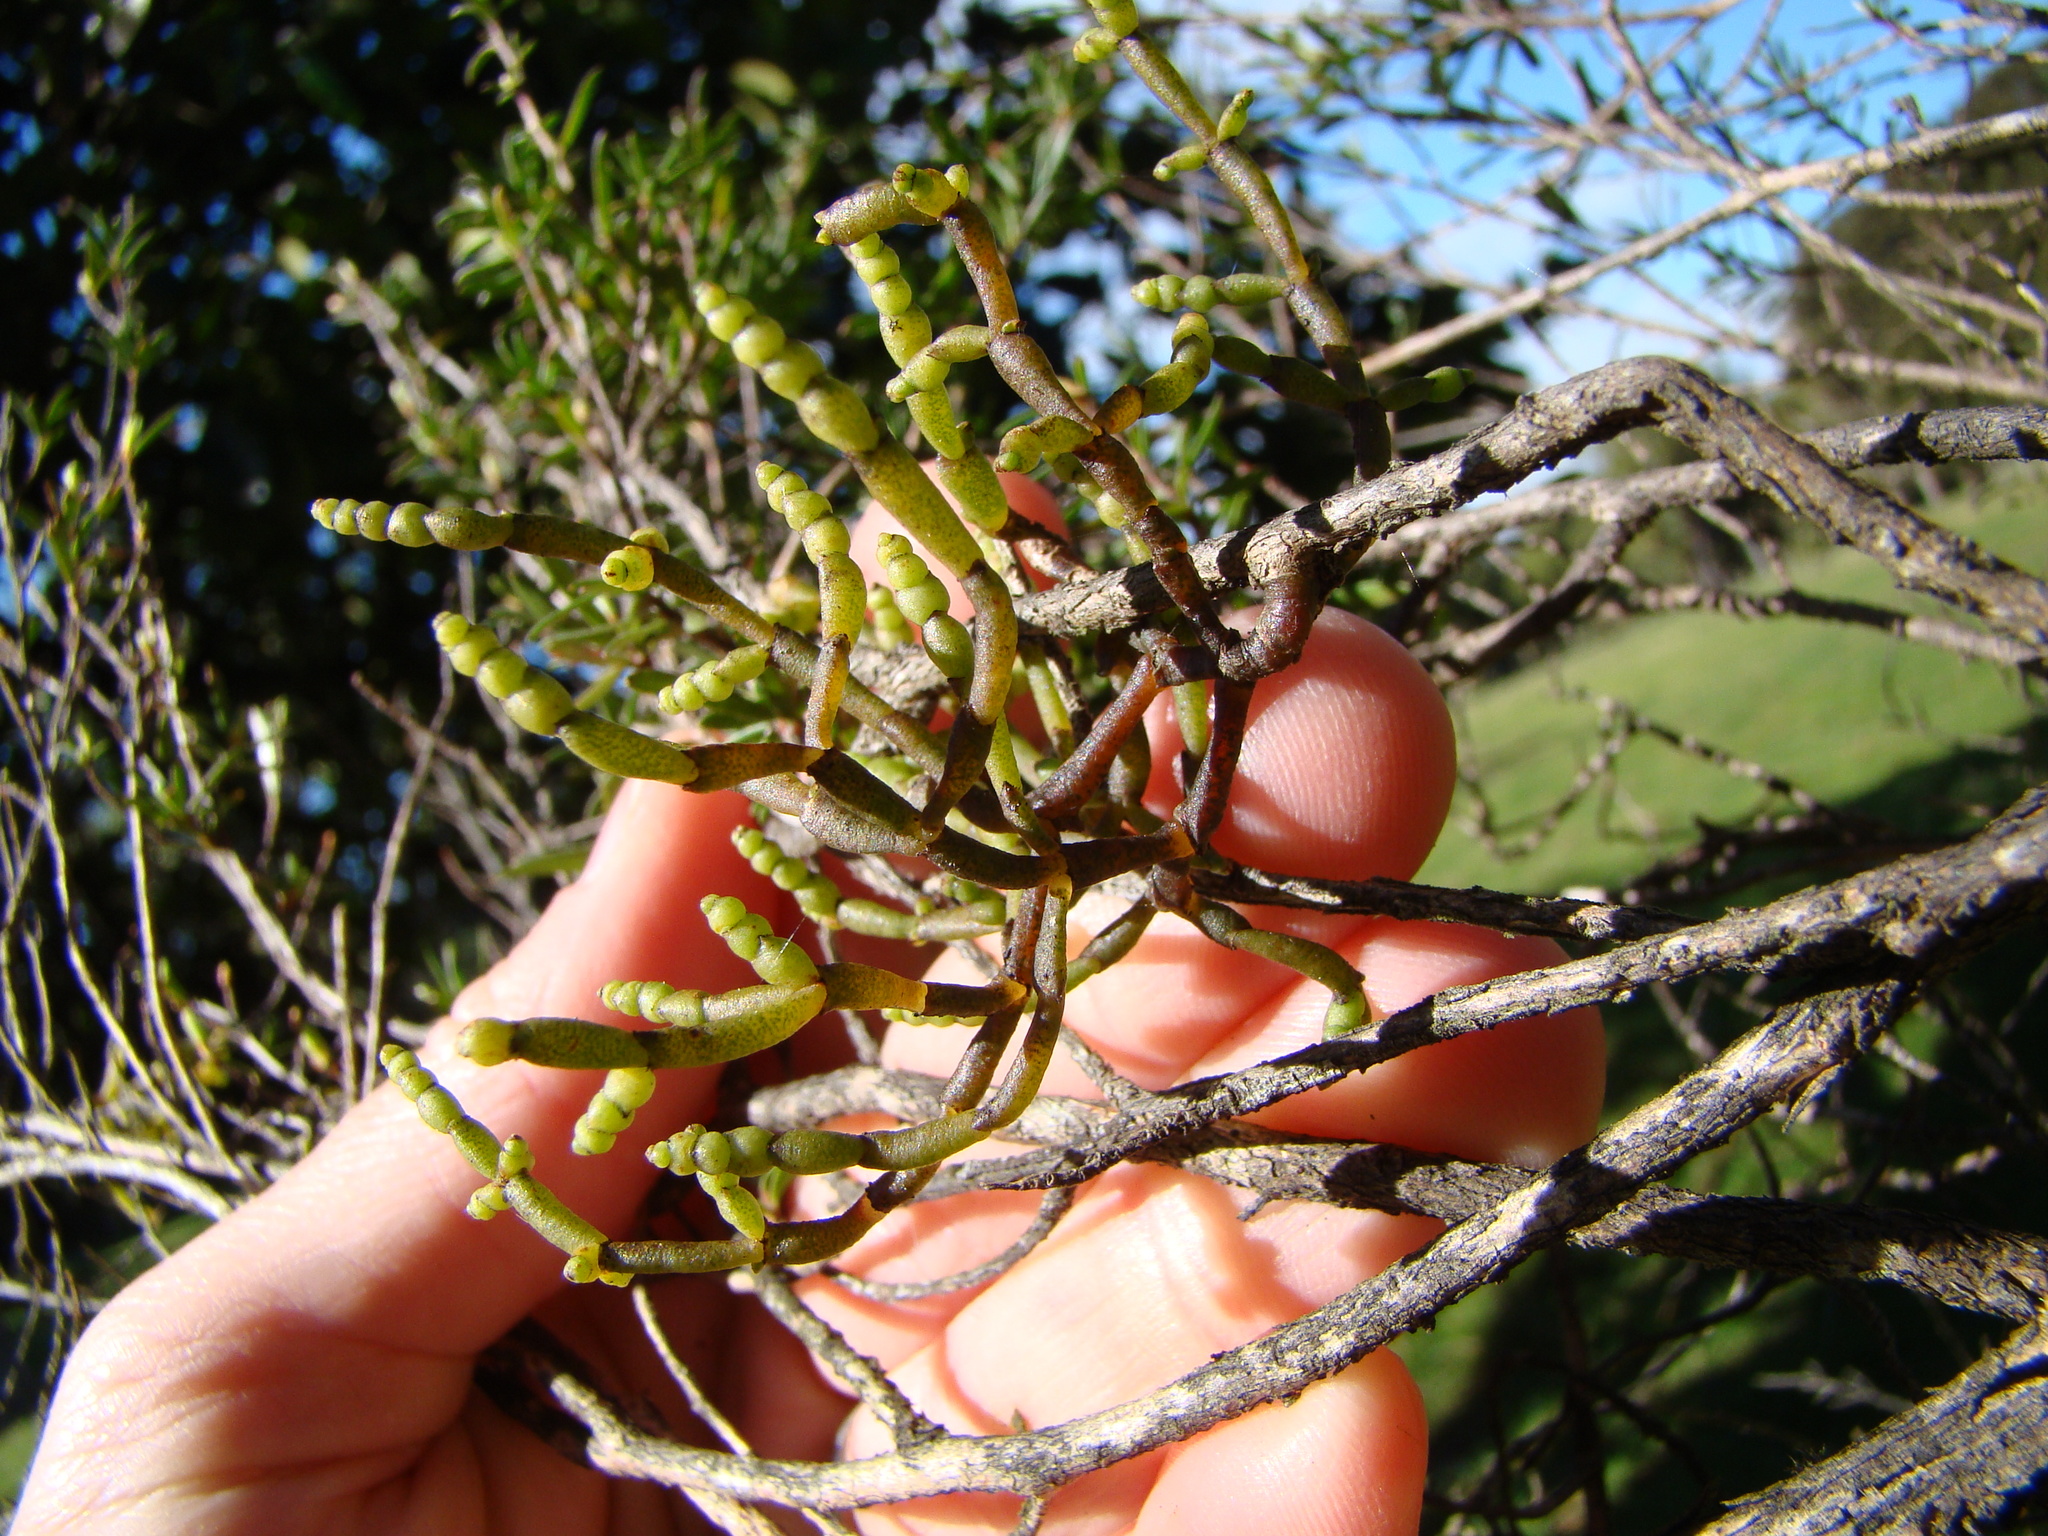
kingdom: Plantae
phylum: Tracheophyta
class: Magnoliopsida
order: Santalales
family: Viscaceae
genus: Korthalsella
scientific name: Korthalsella salicornioides
